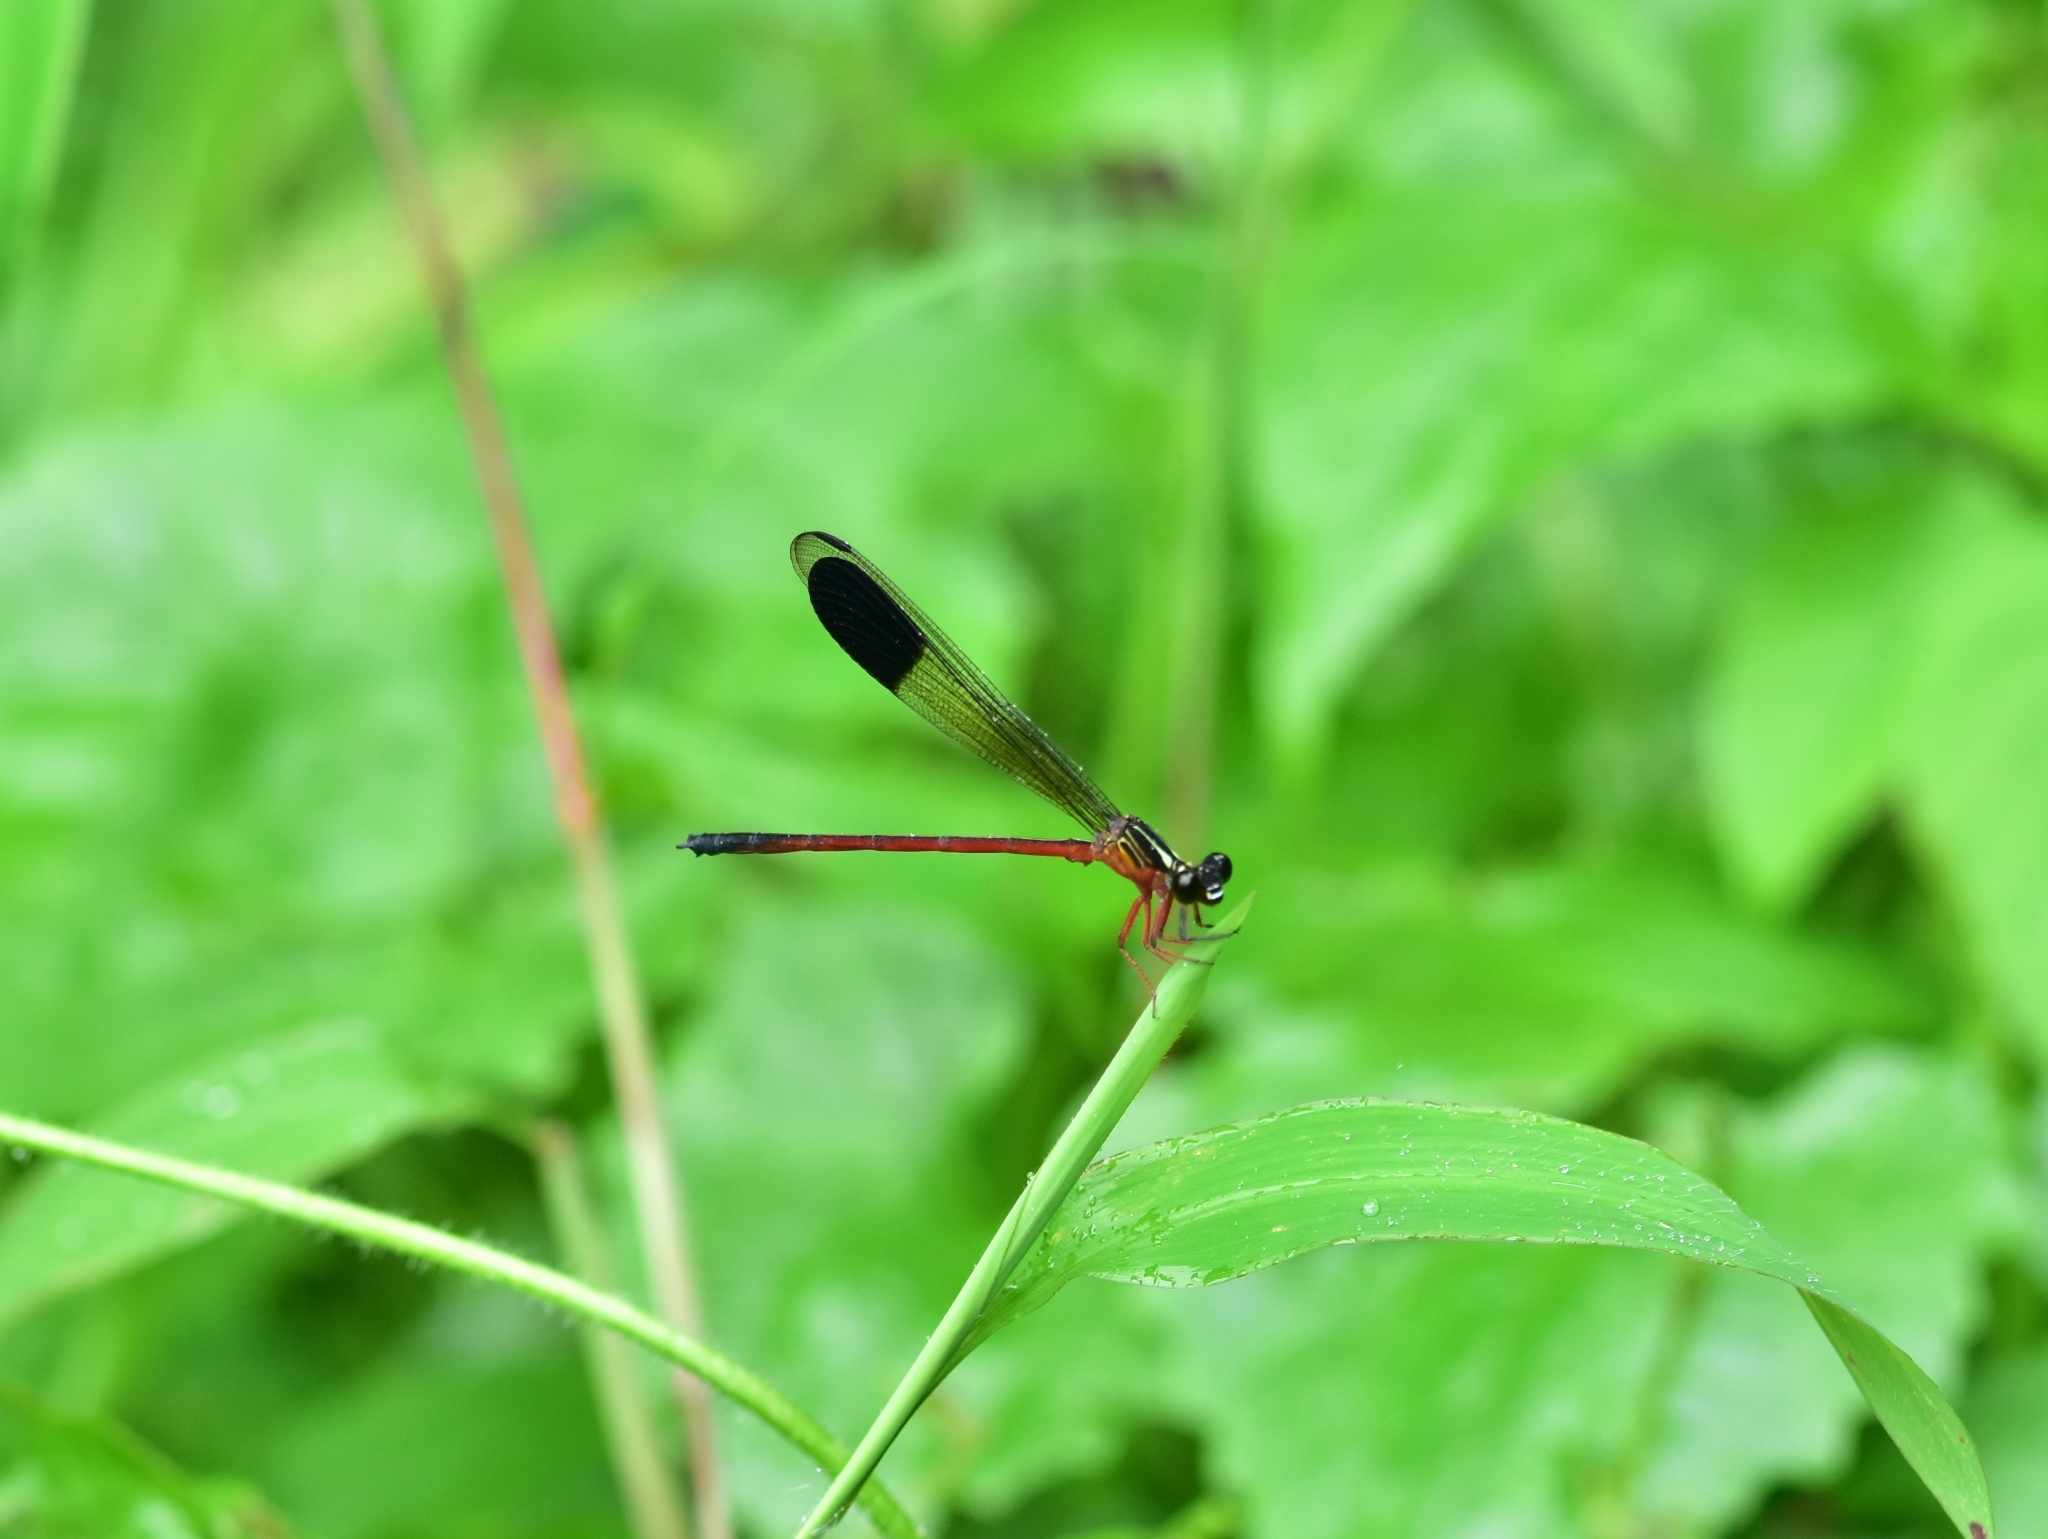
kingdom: Animalia
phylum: Arthropoda
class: Insecta
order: Odonata
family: Euphaeidae
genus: Euphaea
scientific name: Euphaea fraseri
